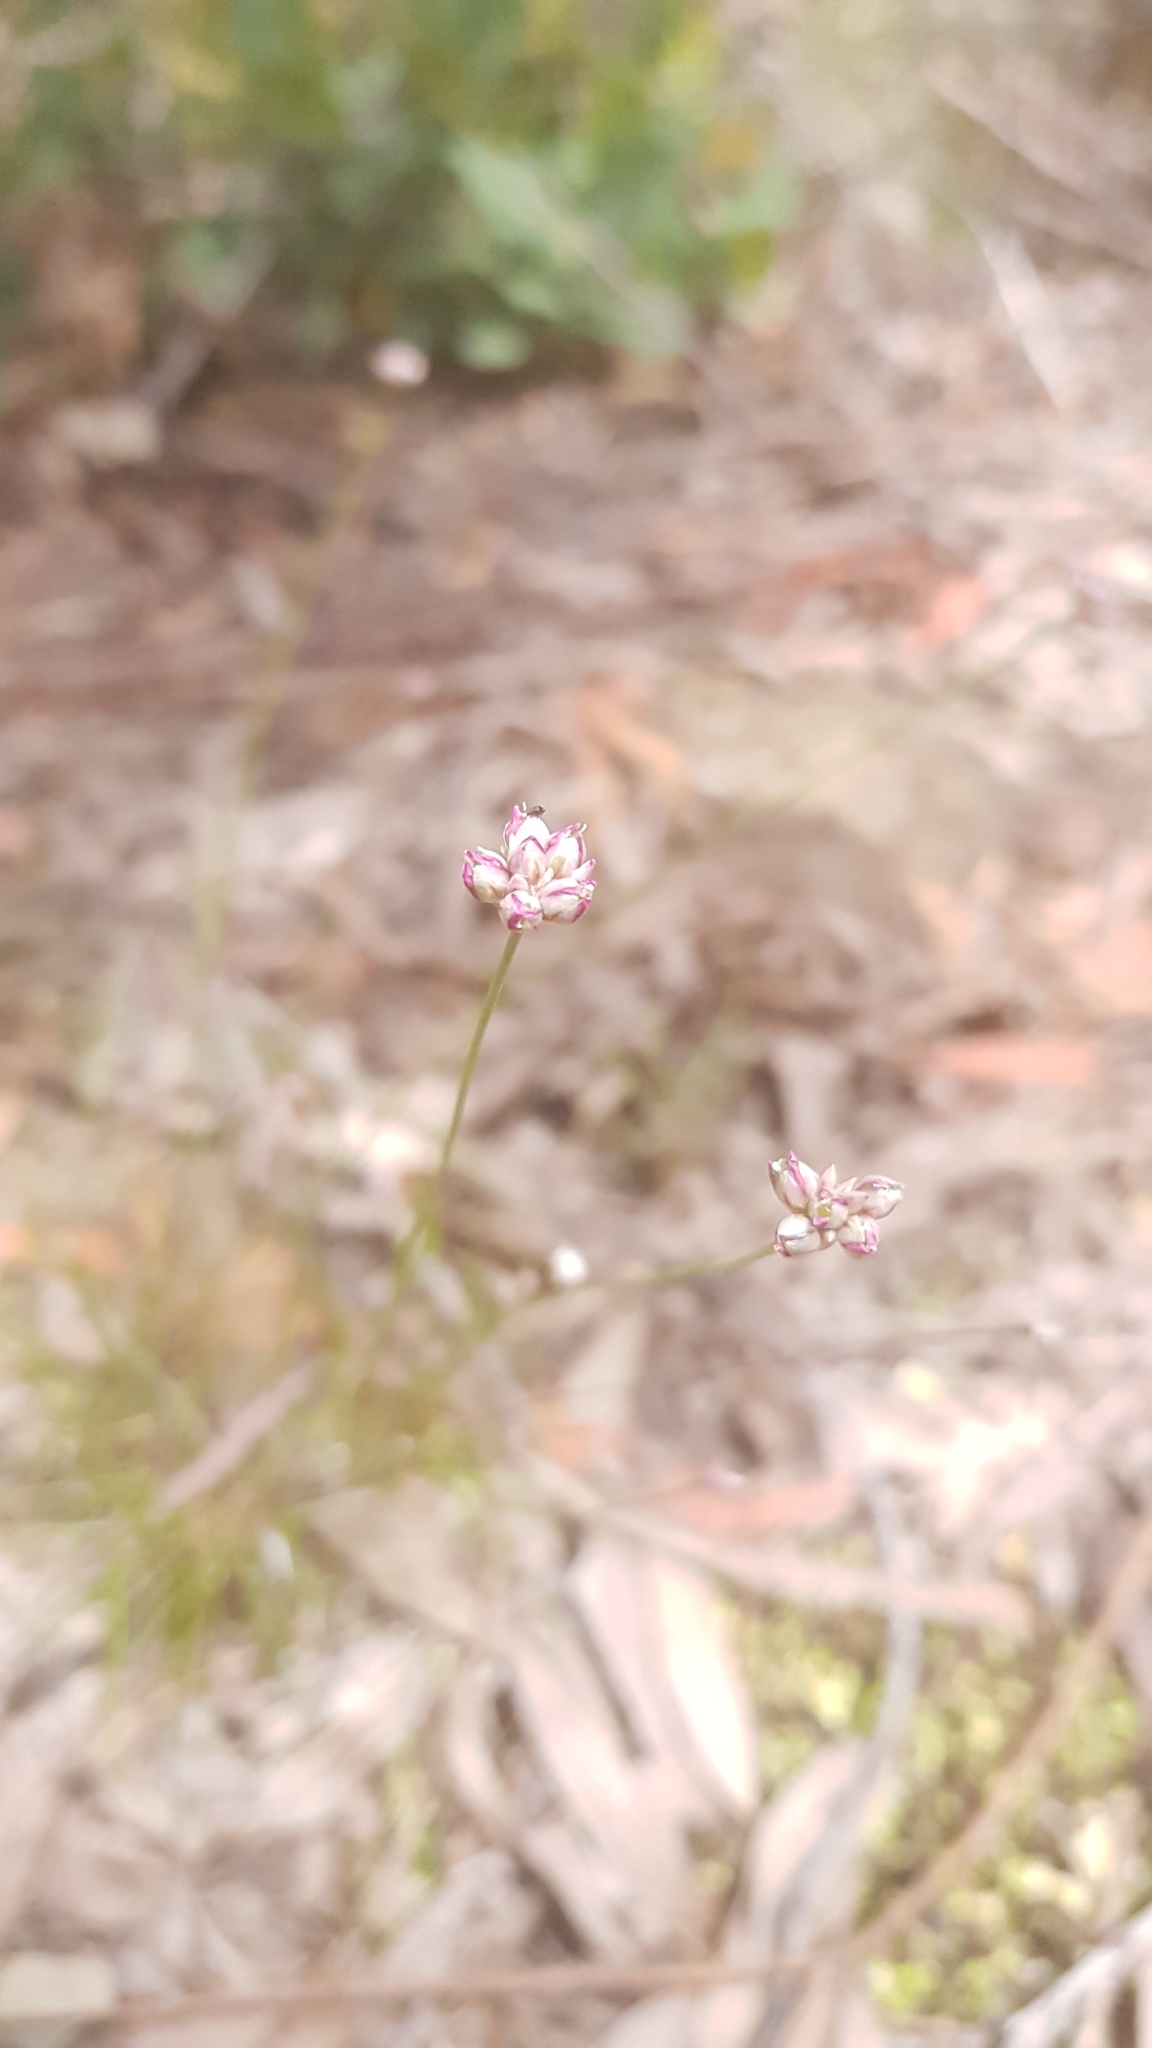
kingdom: Plantae
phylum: Tracheophyta
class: Liliopsida
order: Asparagales
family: Asparagaceae
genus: Laxmannia
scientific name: Laxmannia gracilis
